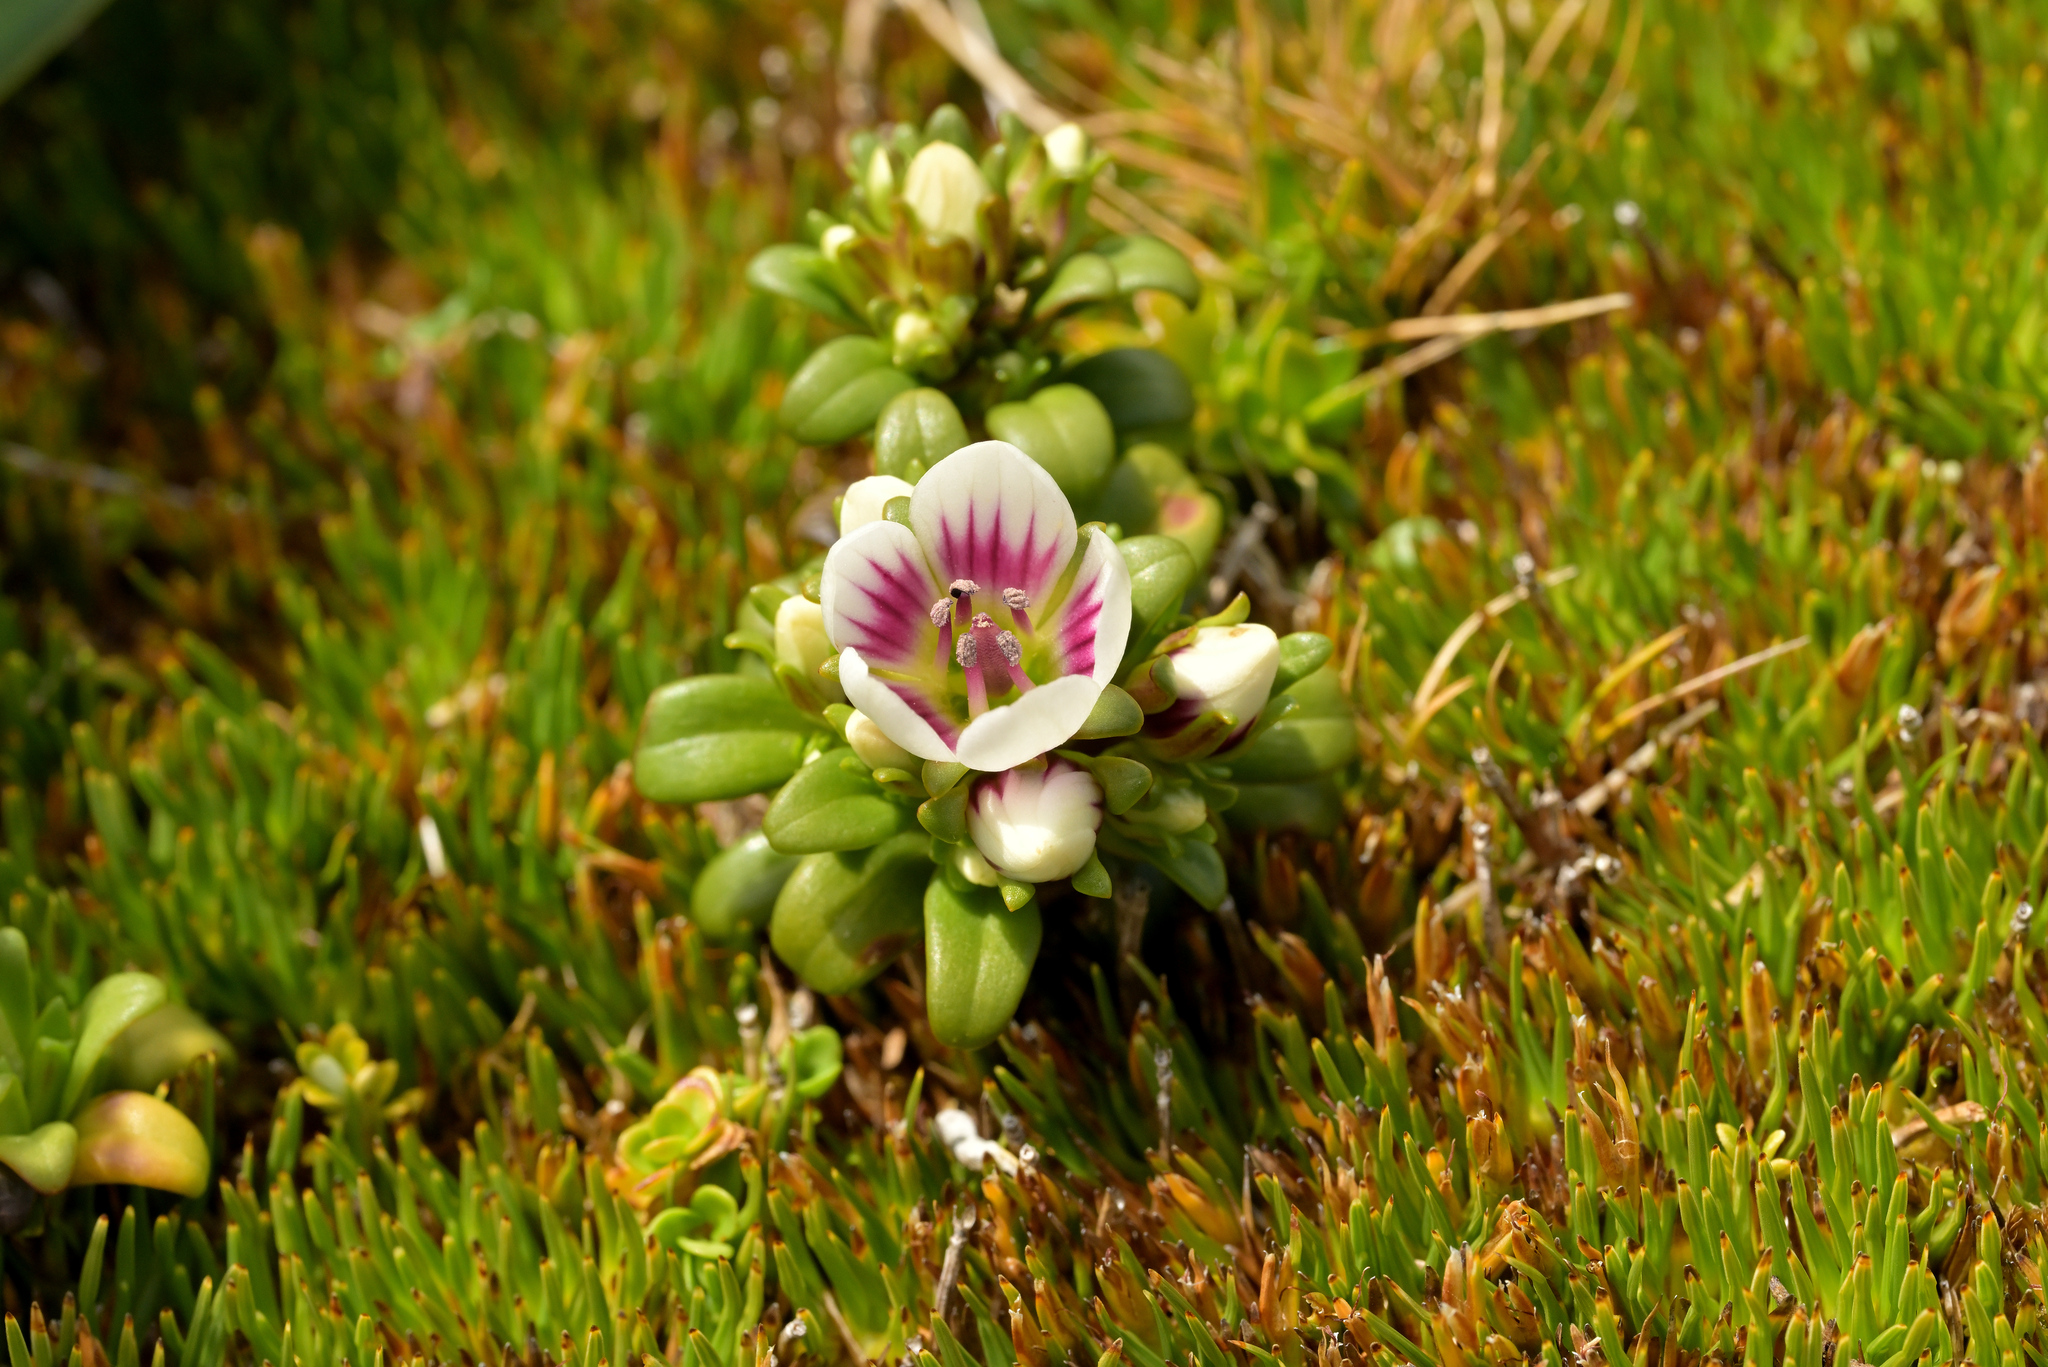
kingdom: Plantae
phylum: Tracheophyta
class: Magnoliopsida
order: Gentianales
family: Gentianaceae
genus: Gentianella
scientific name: Gentianella concinna
